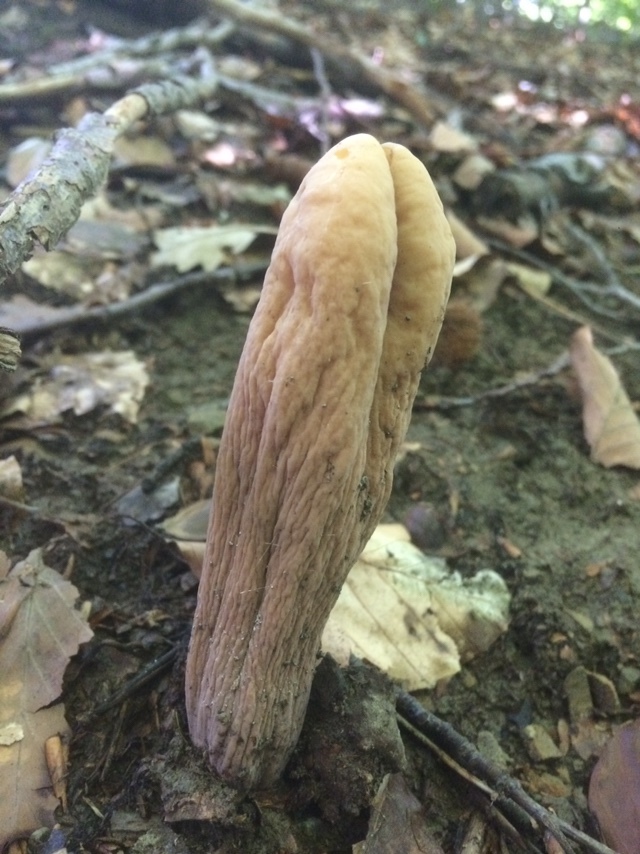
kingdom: Fungi
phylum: Basidiomycota
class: Agaricomycetes
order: Gomphales
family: Clavariadelphaceae
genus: Clavariadelphus
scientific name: Clavariadelphus pistillaris
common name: Giant club
